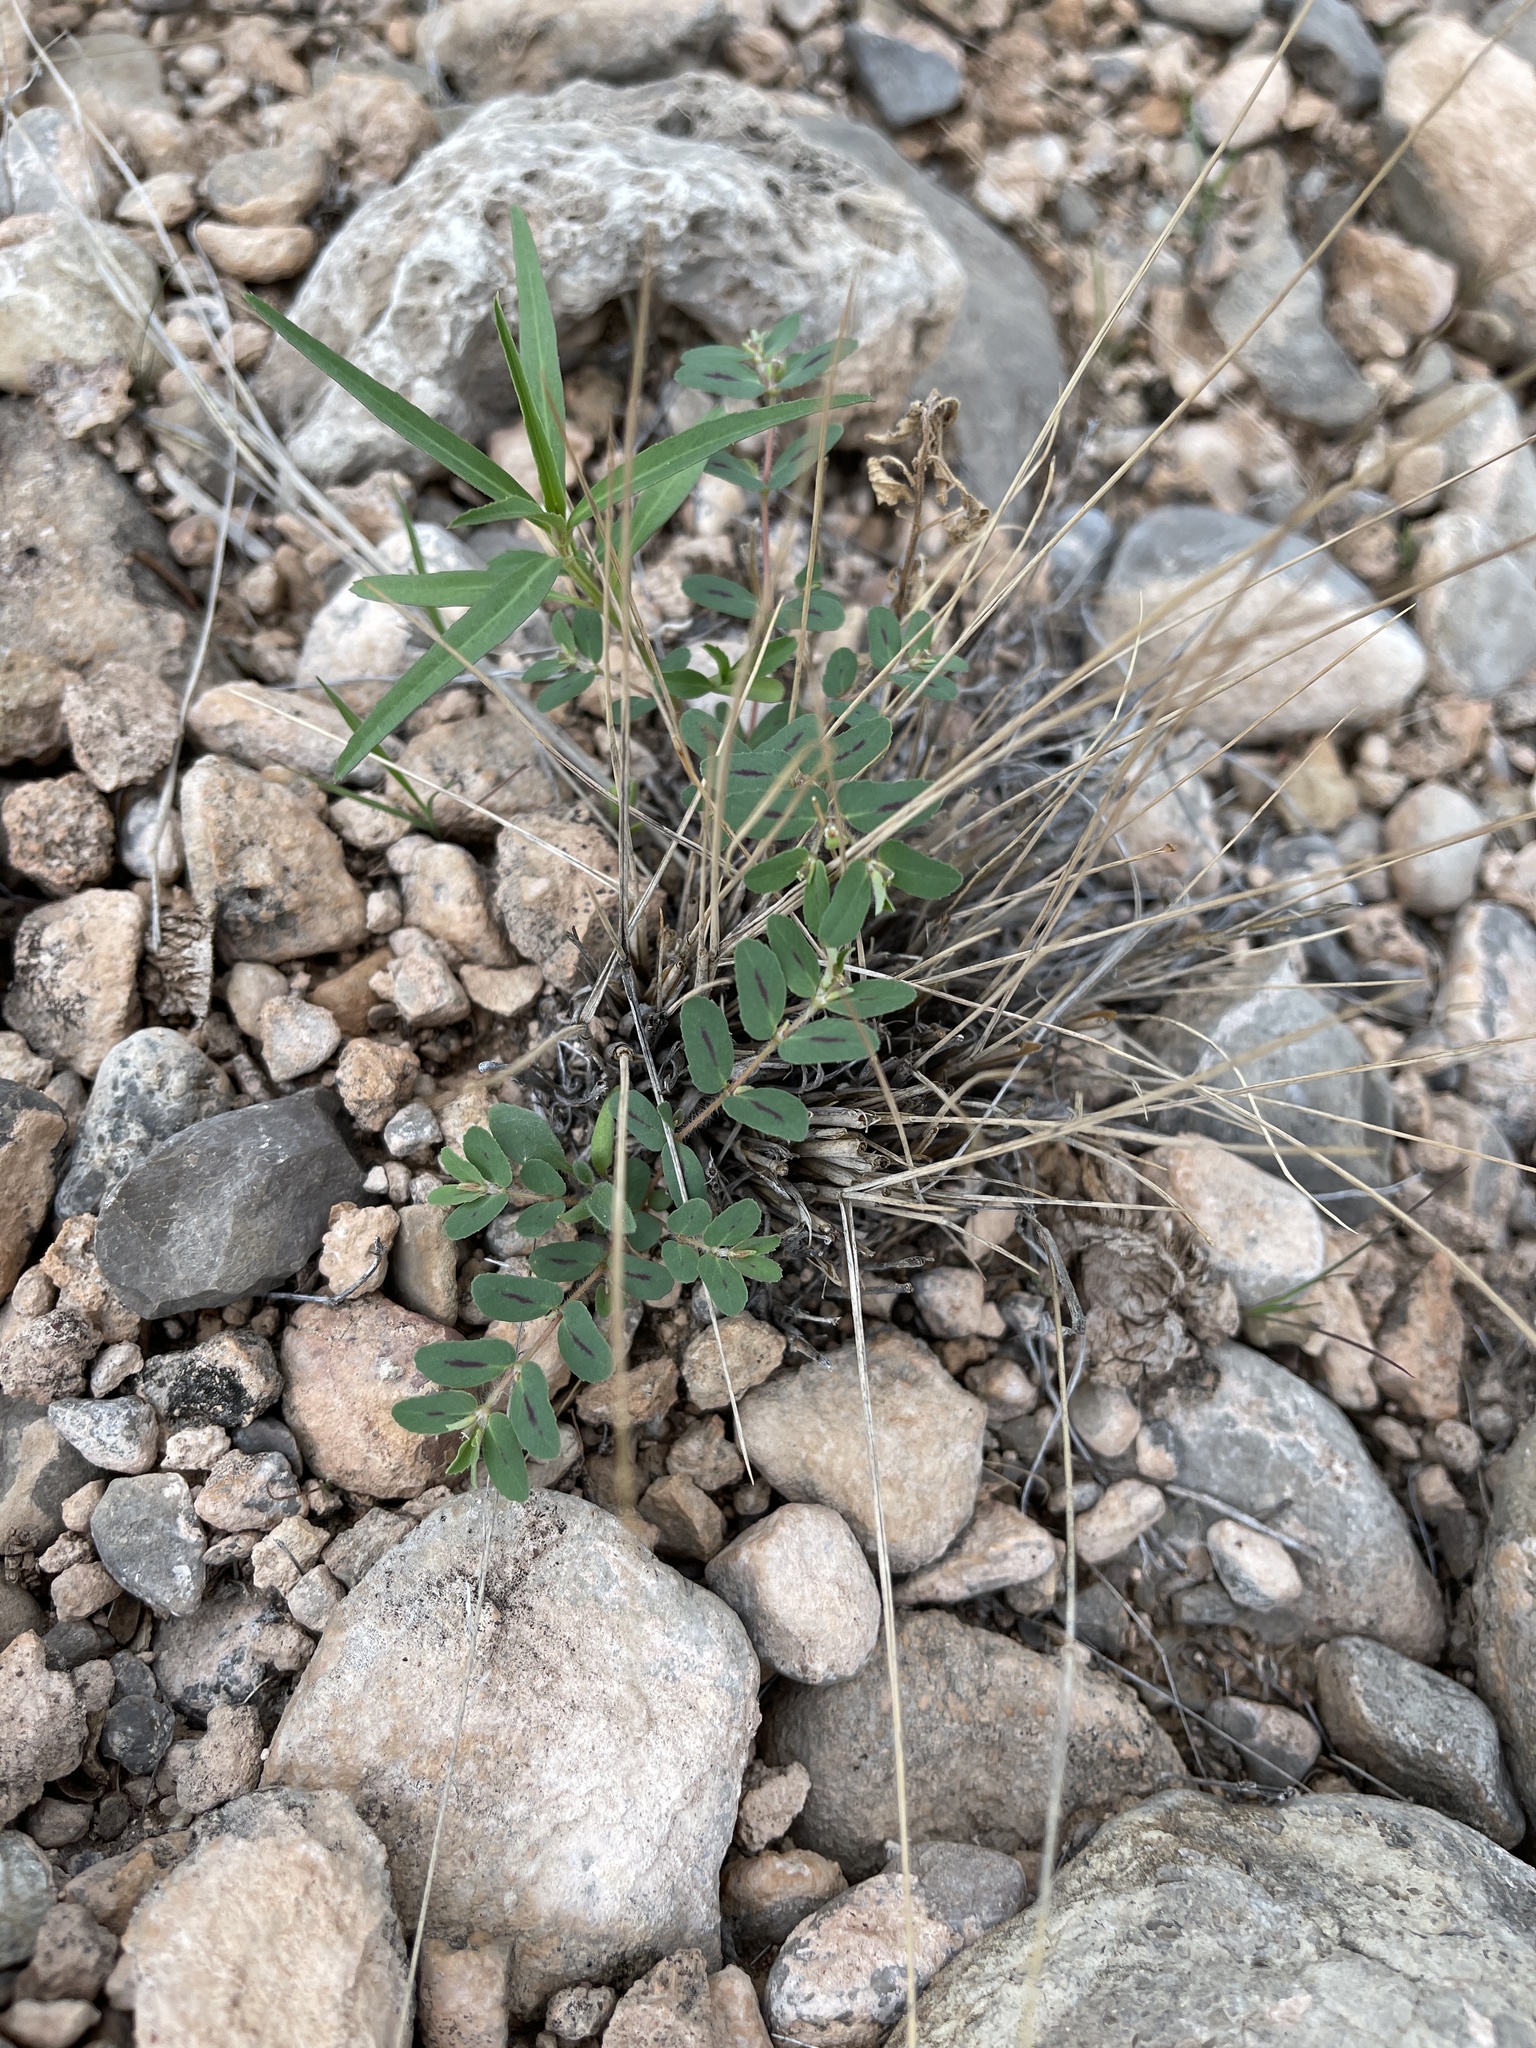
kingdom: Plantae
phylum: Tracheophyta
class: Magnoliopsida
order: Malpighiales
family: Euphorbiaceae
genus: Euphorbia
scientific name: Euphorbia serrula
